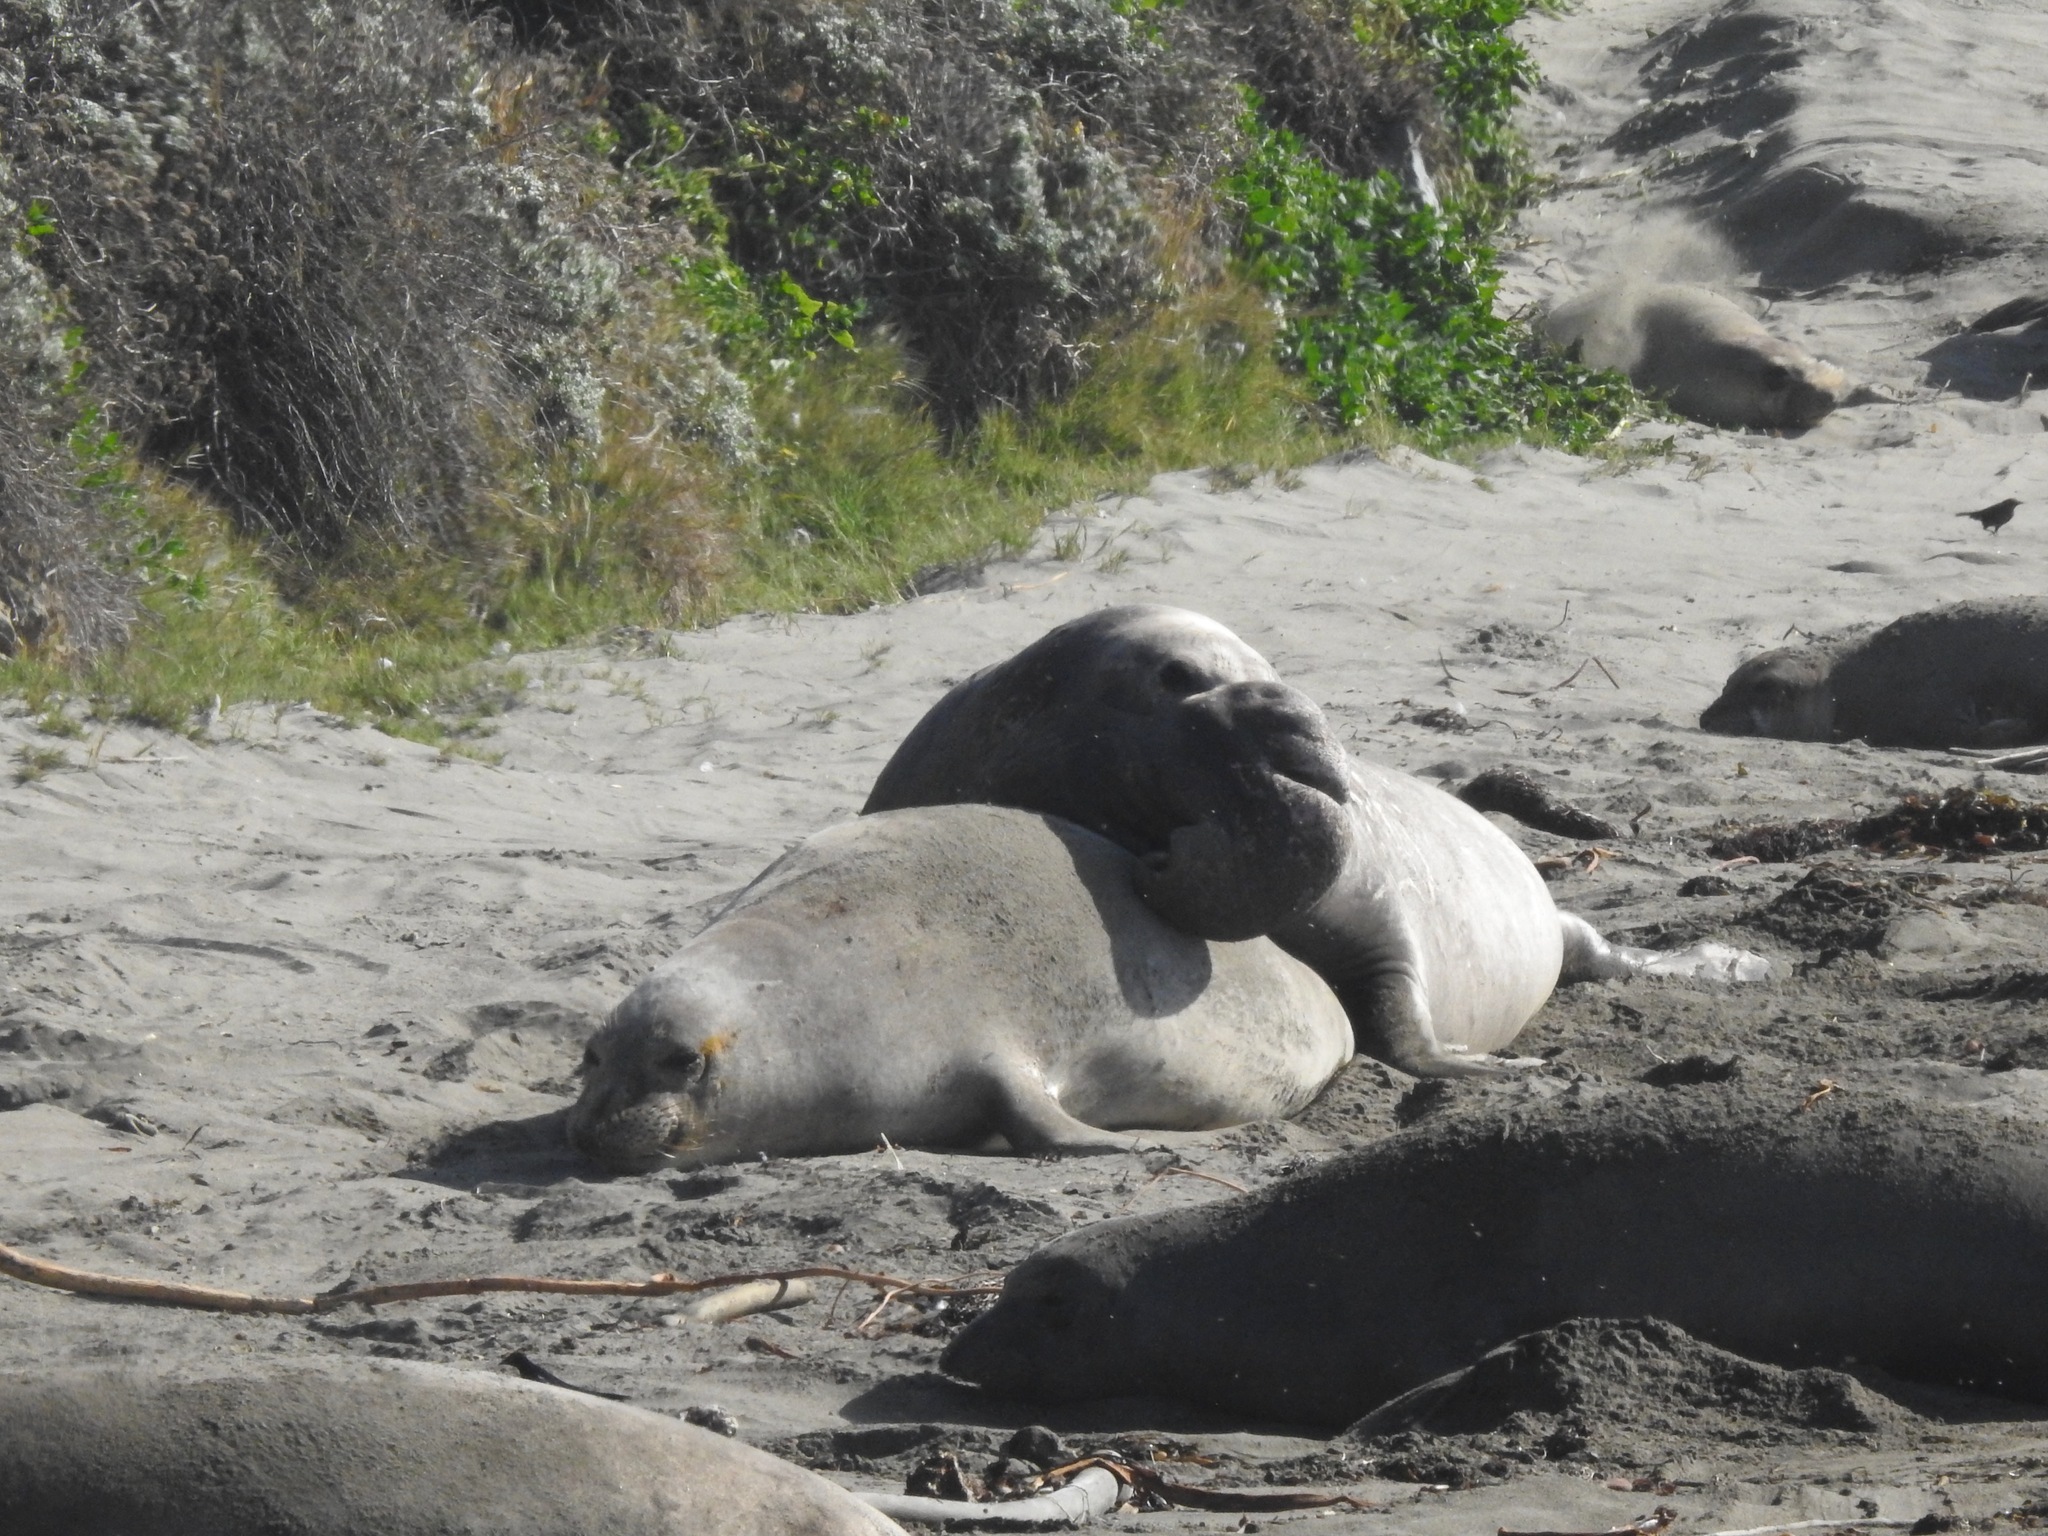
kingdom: Animalia
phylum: Chordata
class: Mammalia
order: Carnivora
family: Phocidae
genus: Mirounga
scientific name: Mirounga angustirostris
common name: Northern elephant seal
